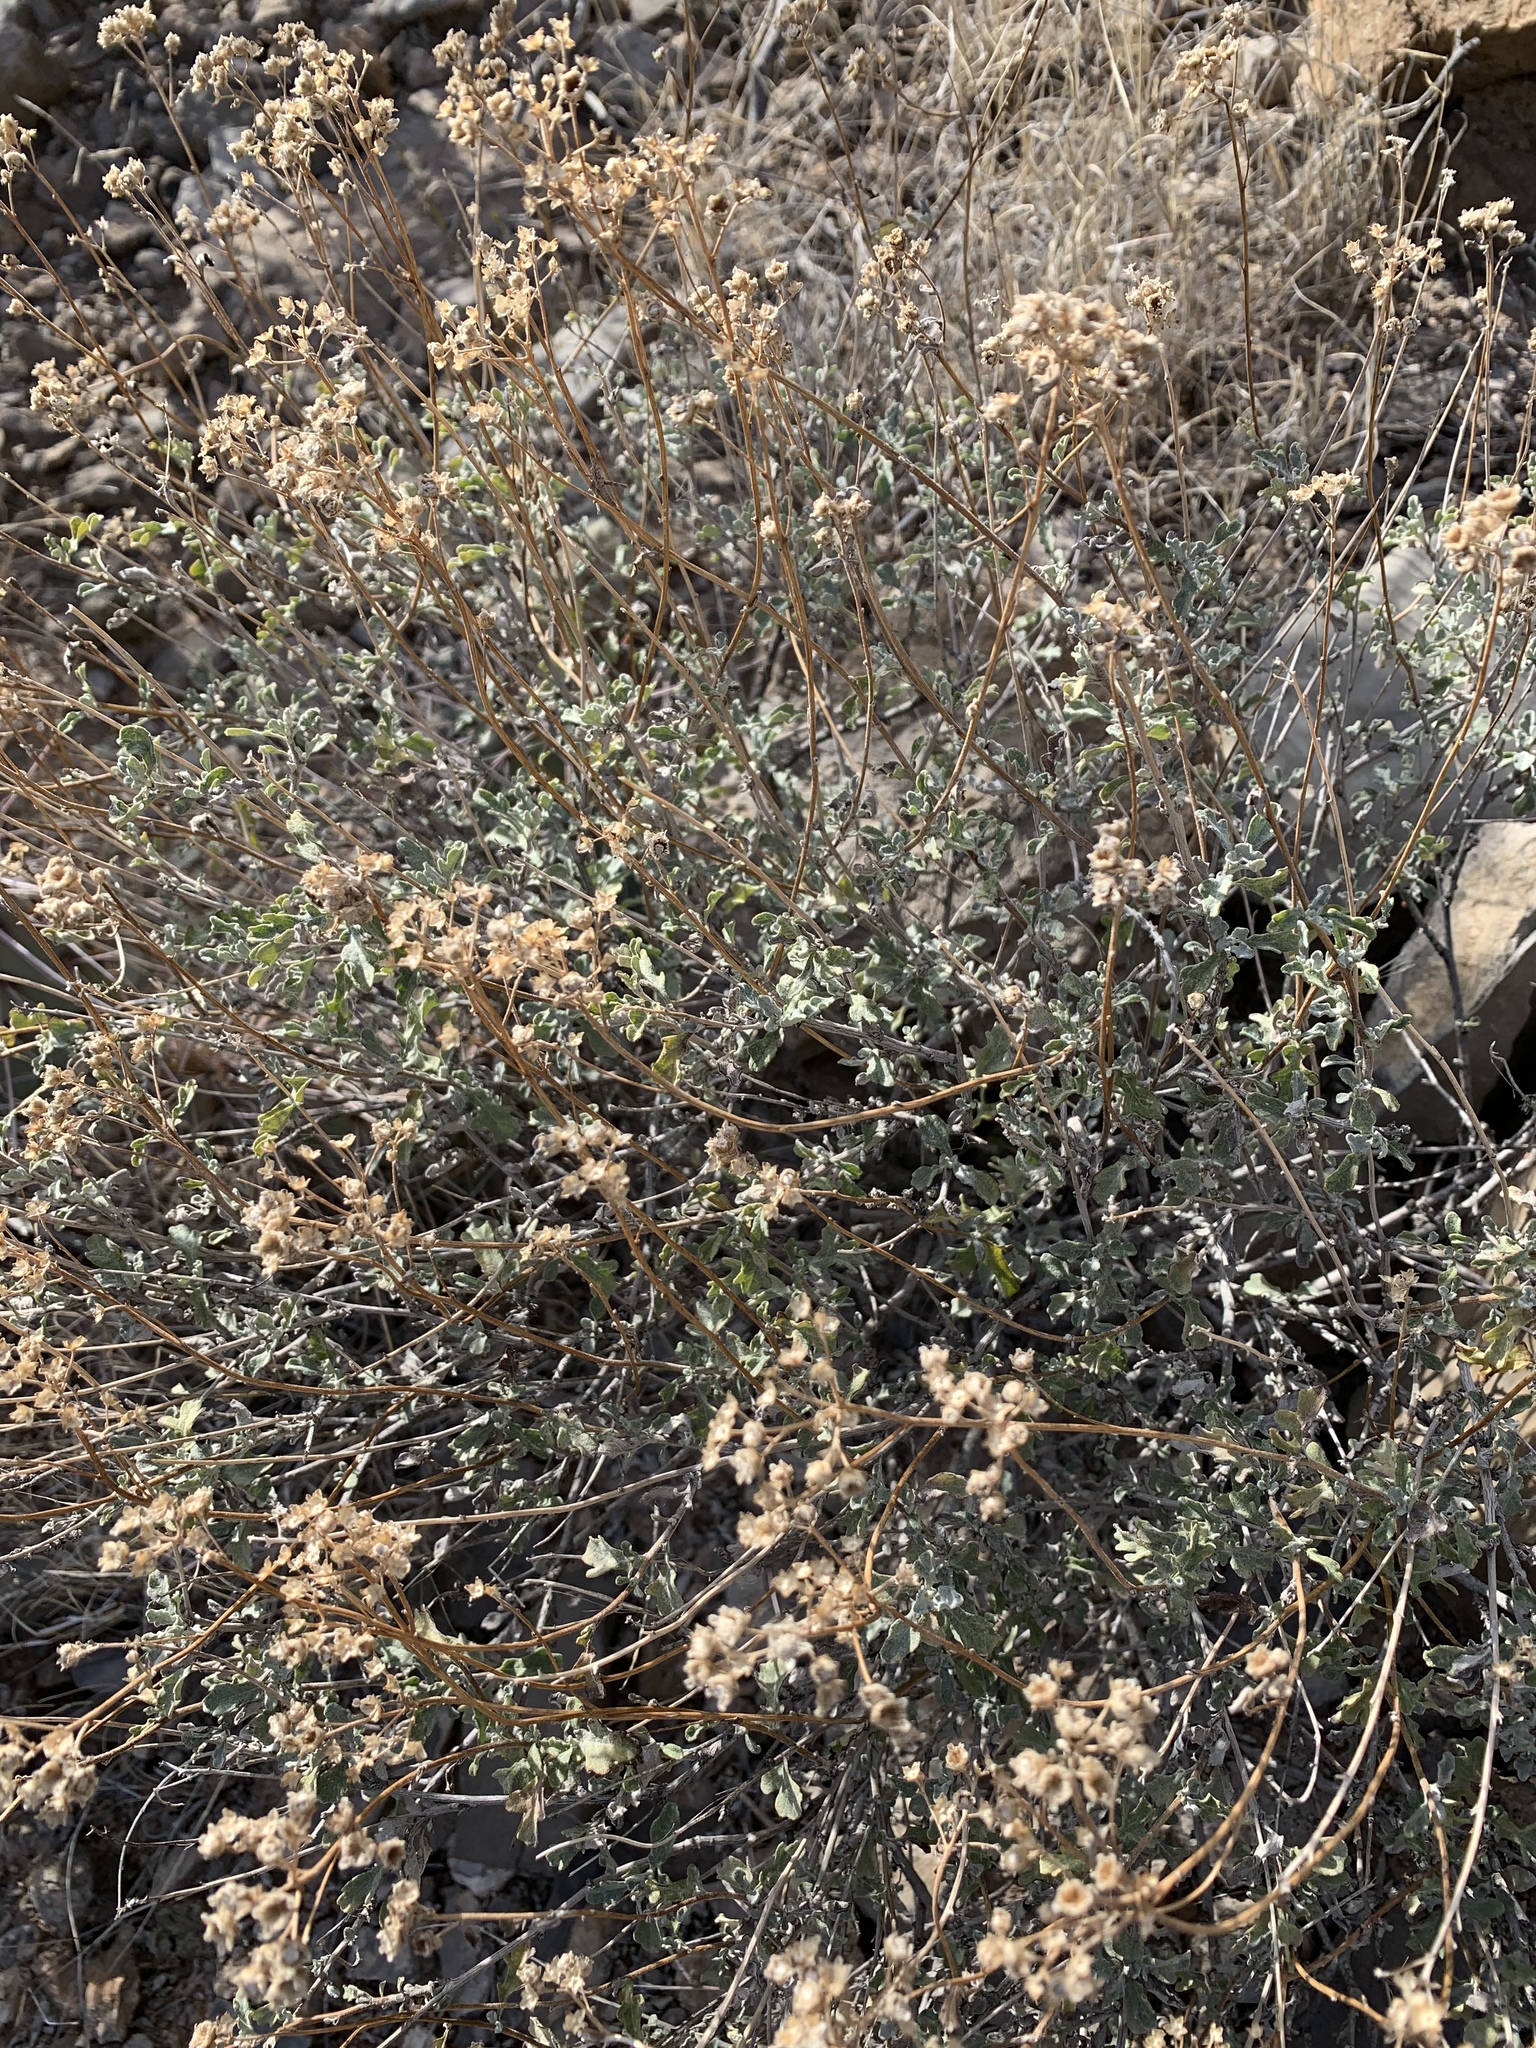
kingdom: Plantae
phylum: Tracheophyta
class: Magnoliopsida
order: Asterales
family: Asteraceae
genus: Parthenium
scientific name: Parthenium incanum
